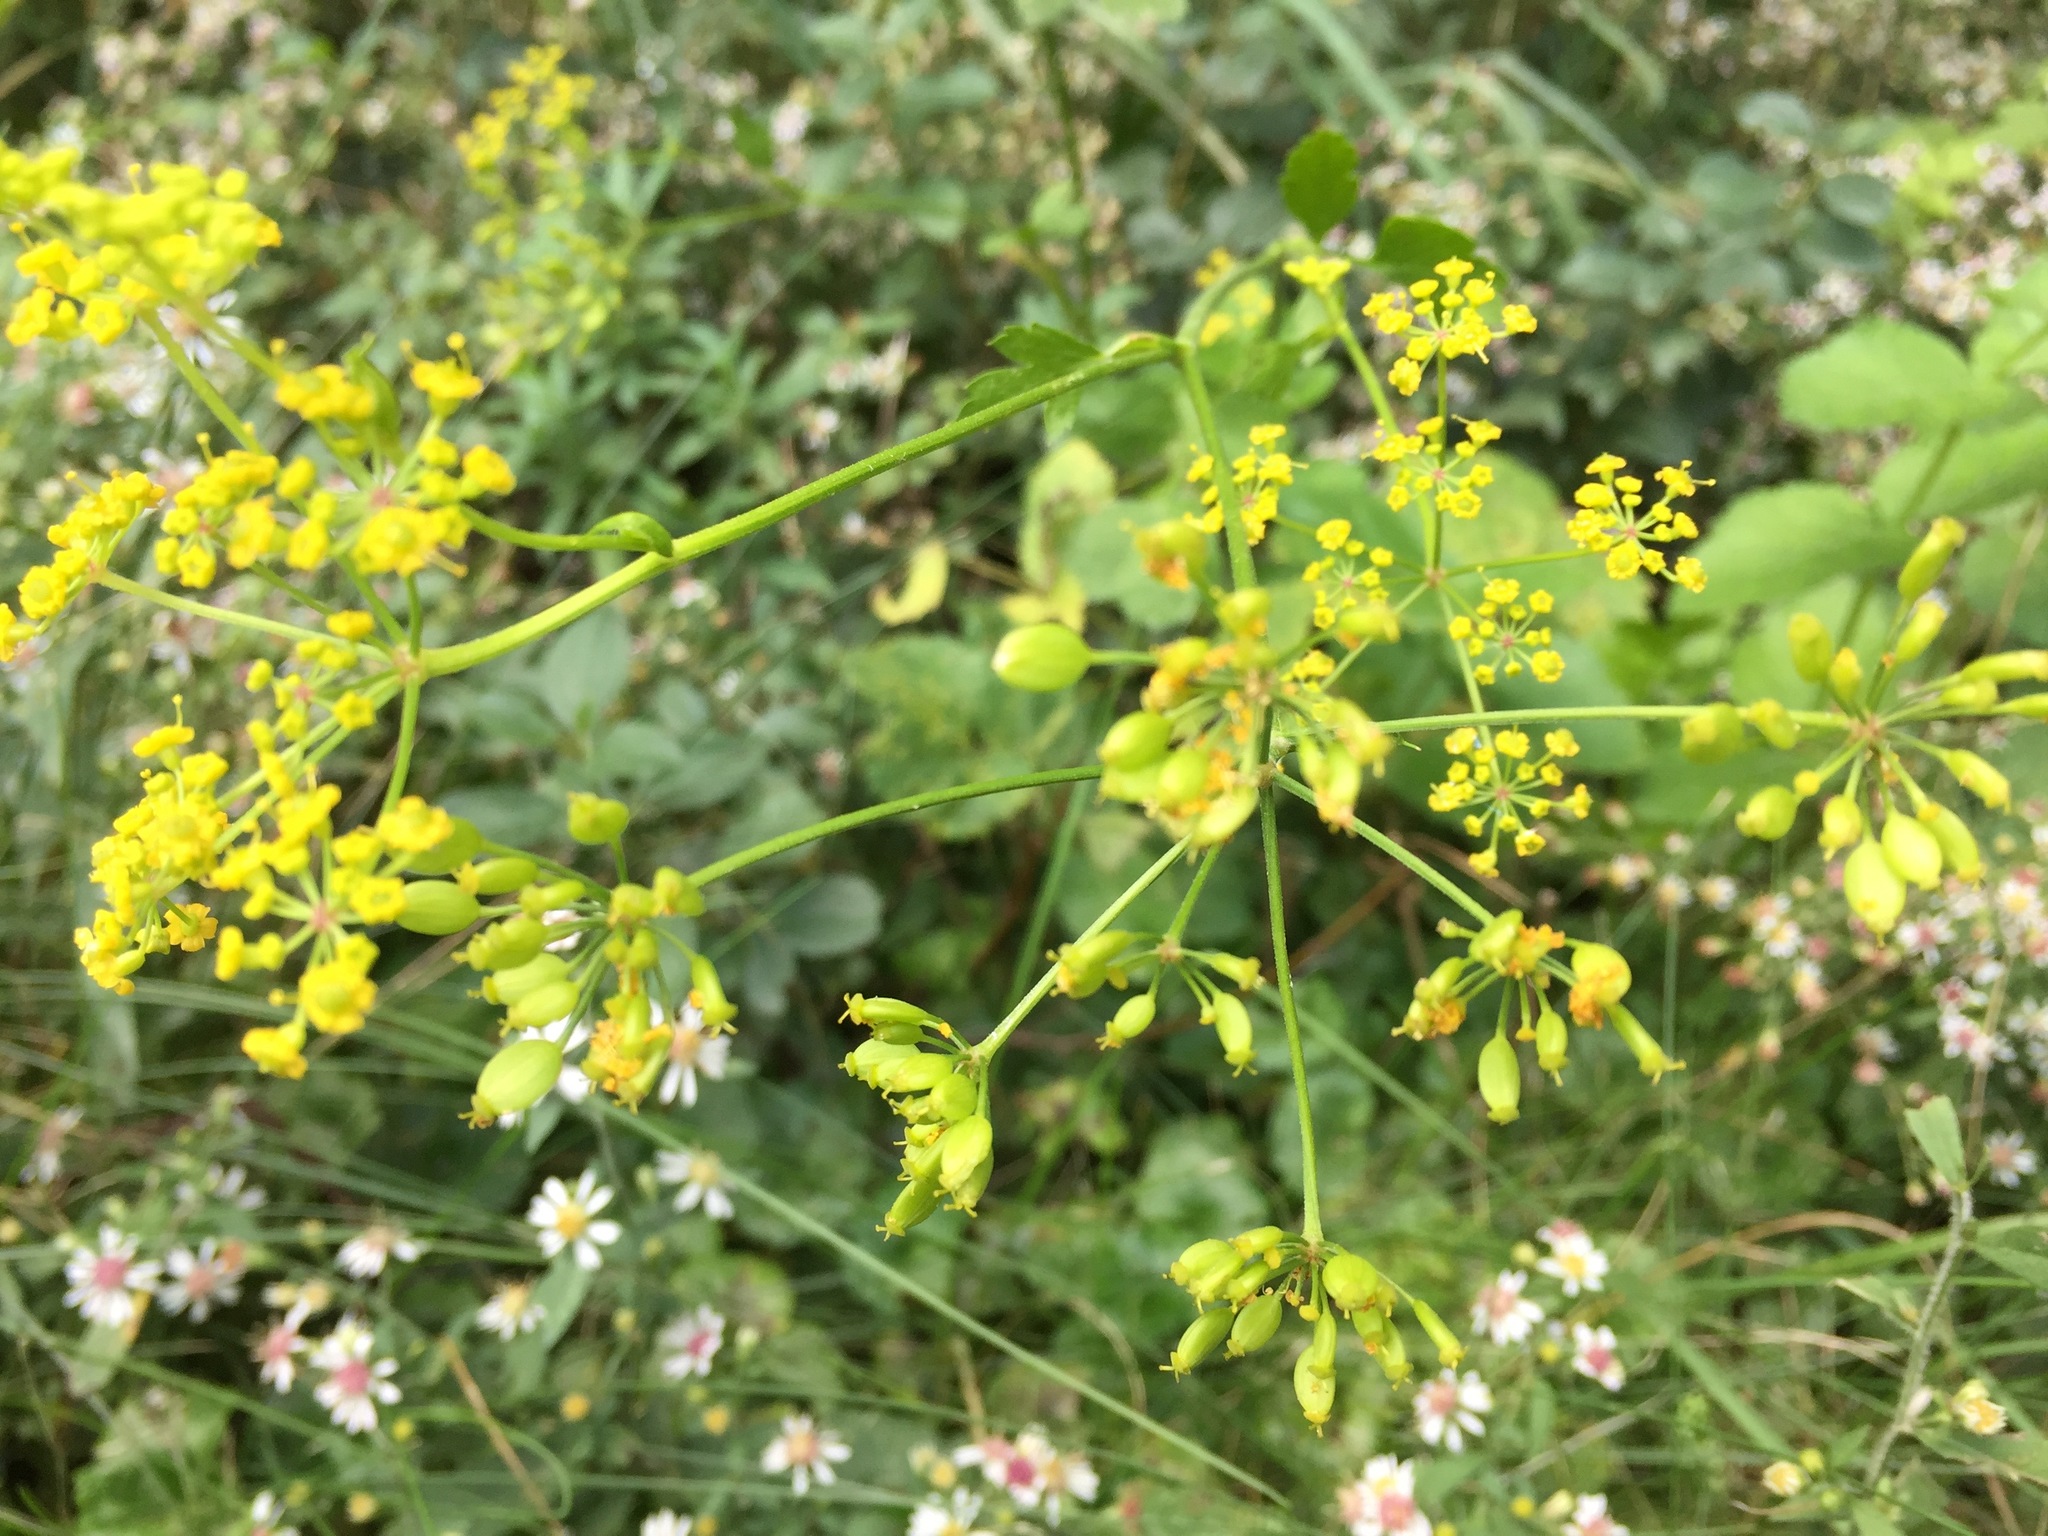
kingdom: Plantae
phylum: Tracheophyta
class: Magnoliopsida
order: Apiales
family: Apiaceae
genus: Pastinaca
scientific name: Pastinaca sativa
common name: Wild parsnip
